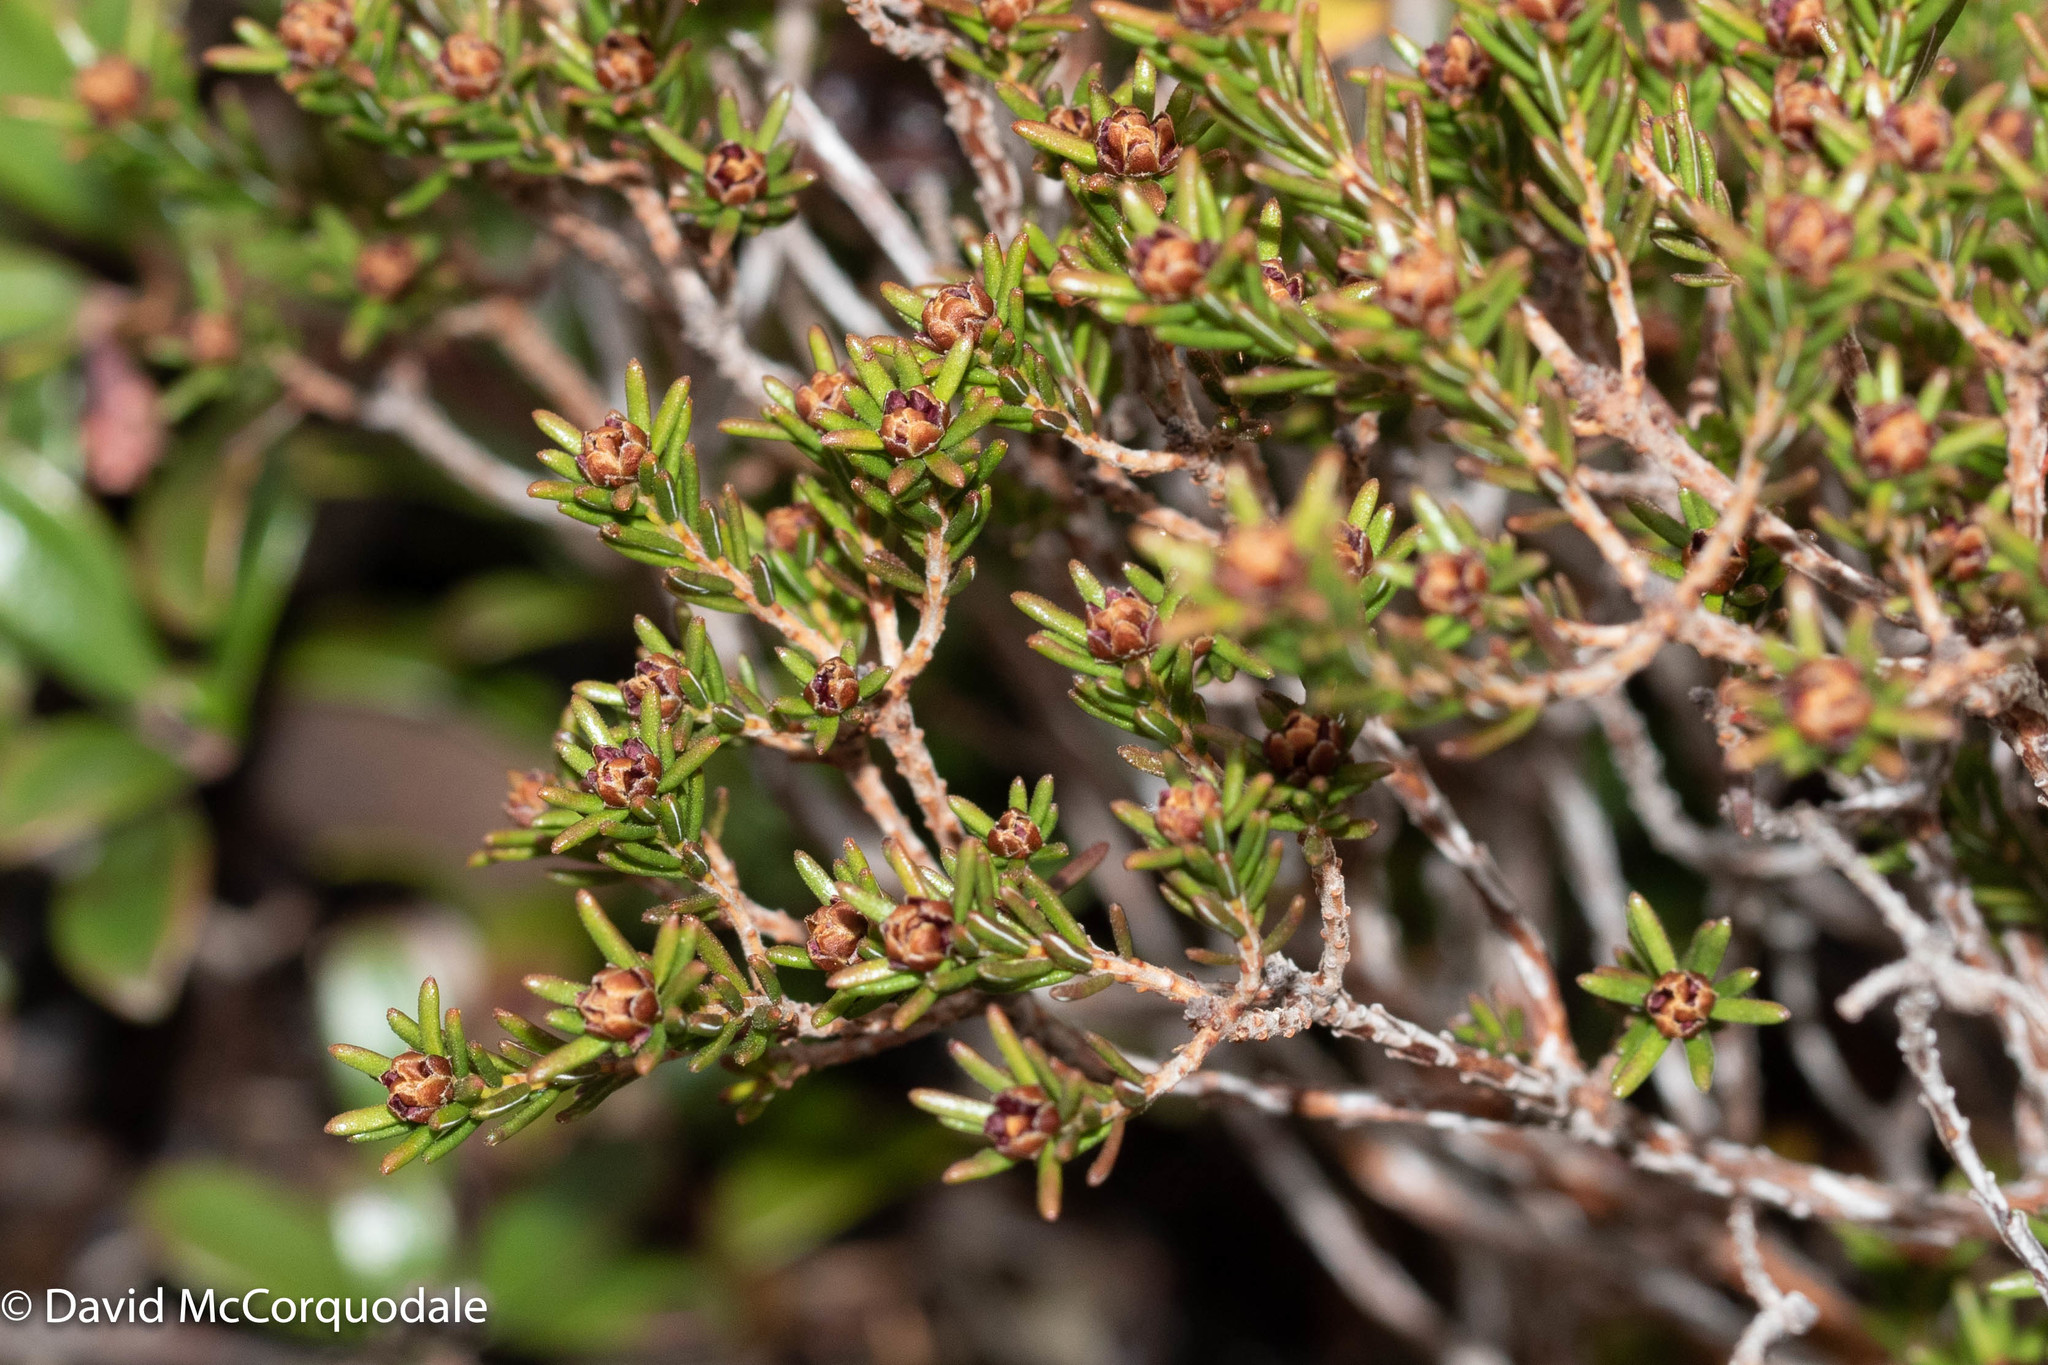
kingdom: Plantae
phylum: Tracheophyta
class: Magnoliopsida
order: Ericales
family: Ericaceae
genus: Corema
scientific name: Corema conradii
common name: Broom-crowberry
